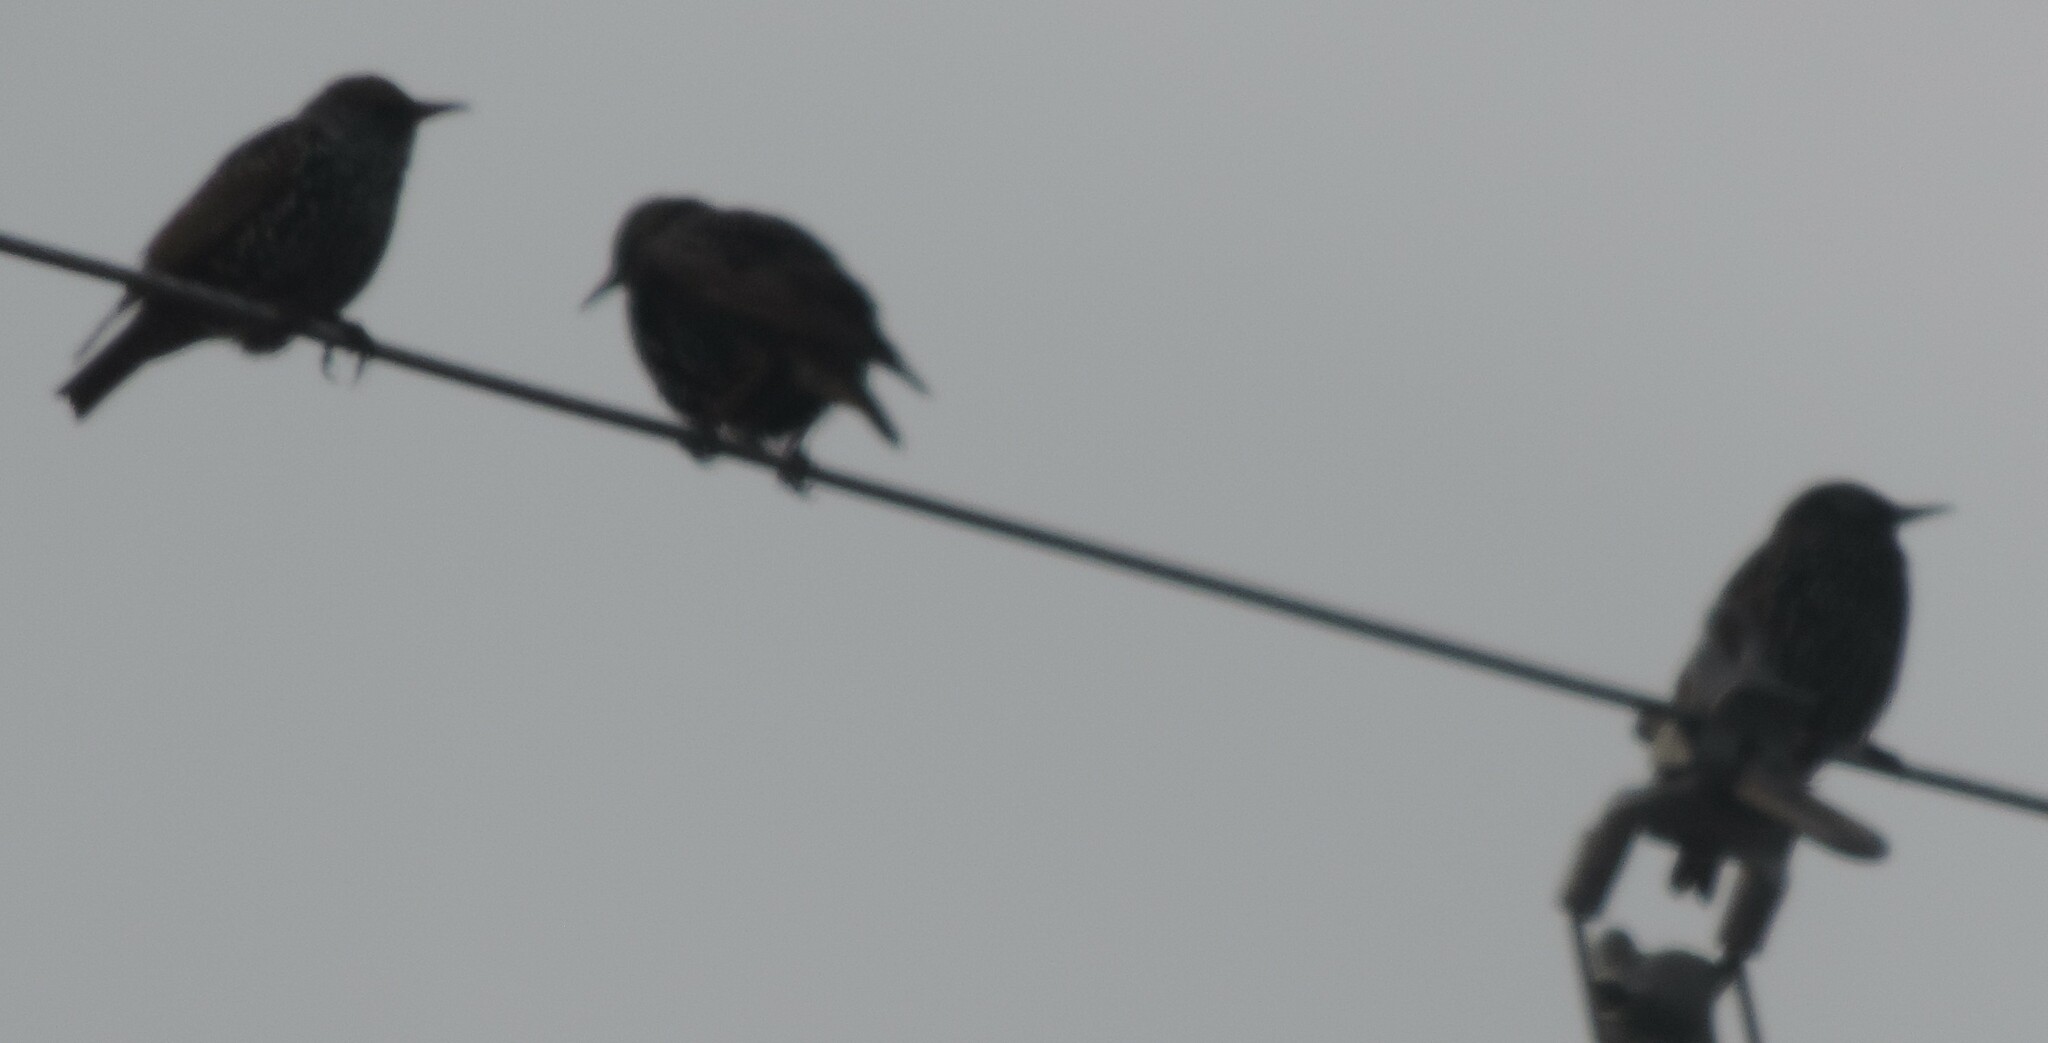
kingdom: Animalia
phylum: Chordata
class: Aves
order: Passeriformes
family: Sturnidae
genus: Sturnus
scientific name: Sturnus vulgaris
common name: Common starling
